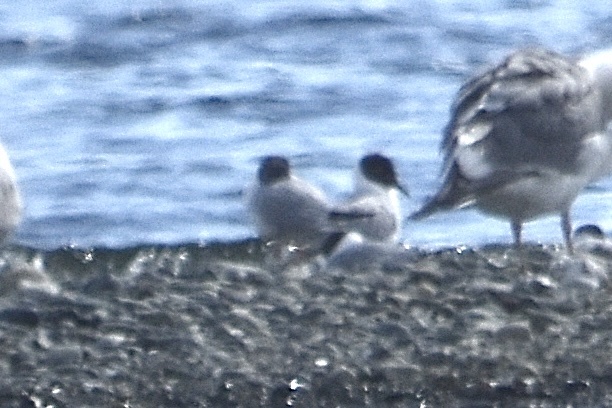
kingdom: Animalia
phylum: Chordata
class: Aves
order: Charadriiformes
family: Laridae
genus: Chroicocephalus
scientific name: Chroicocephalus philadelphia
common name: Bonaparte's gull
